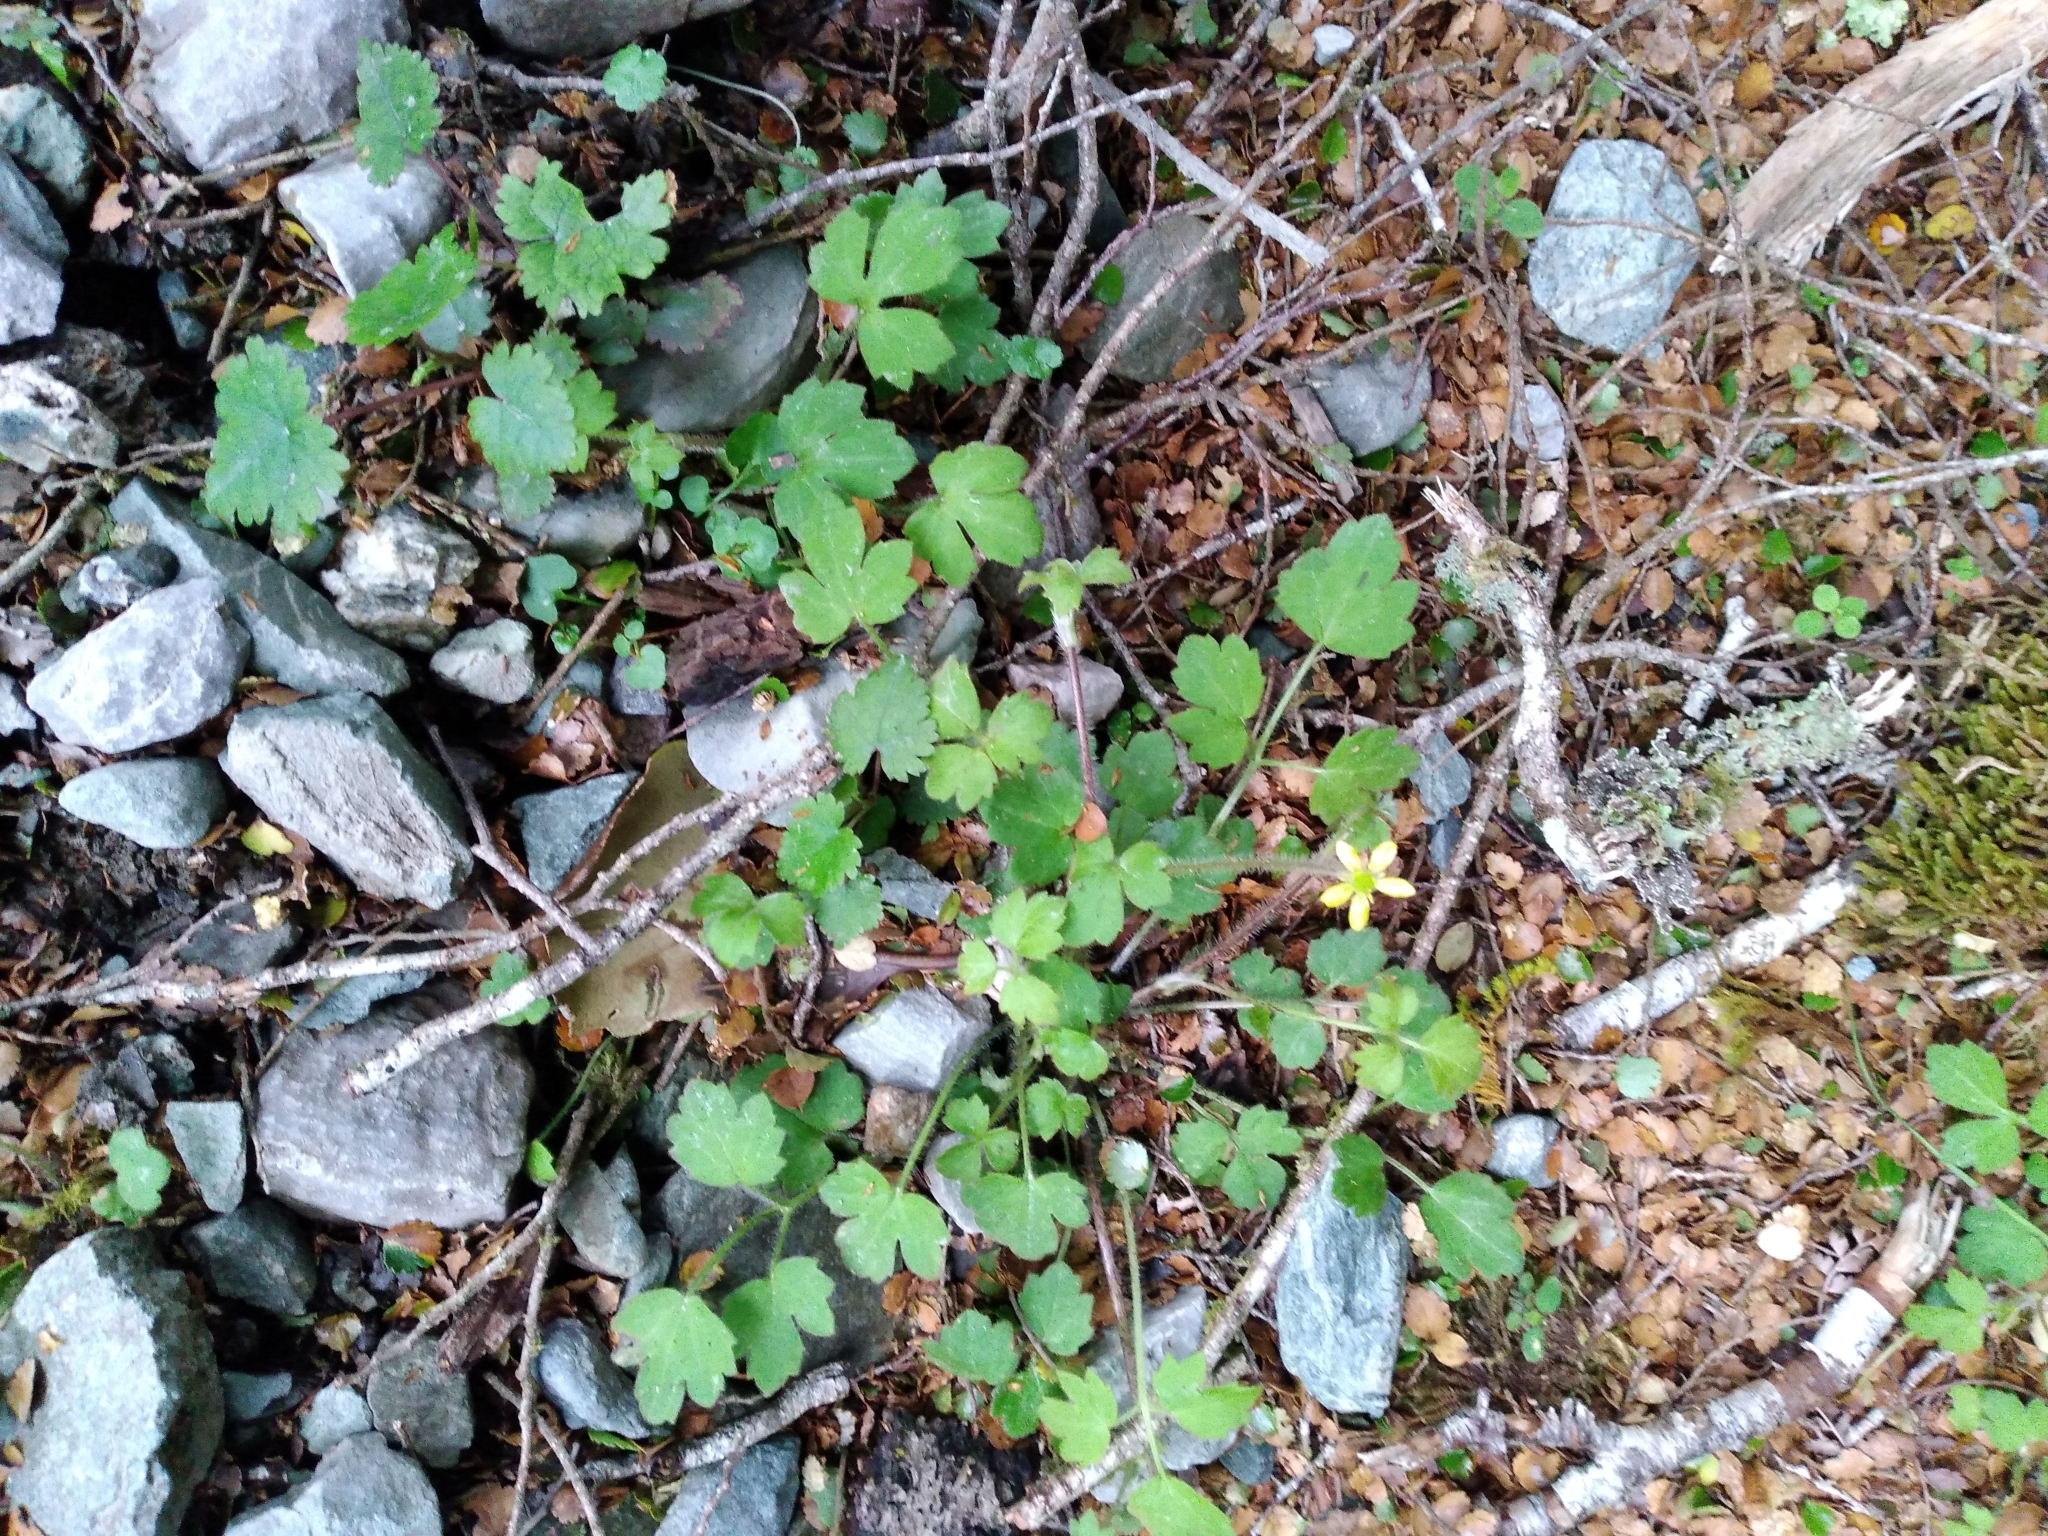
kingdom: Plantae
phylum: Tracheophyta
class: Magnoliopsida
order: Ranunculales
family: Ranunculaceae
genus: Ranunculus
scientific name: Ranunculus reflexus
